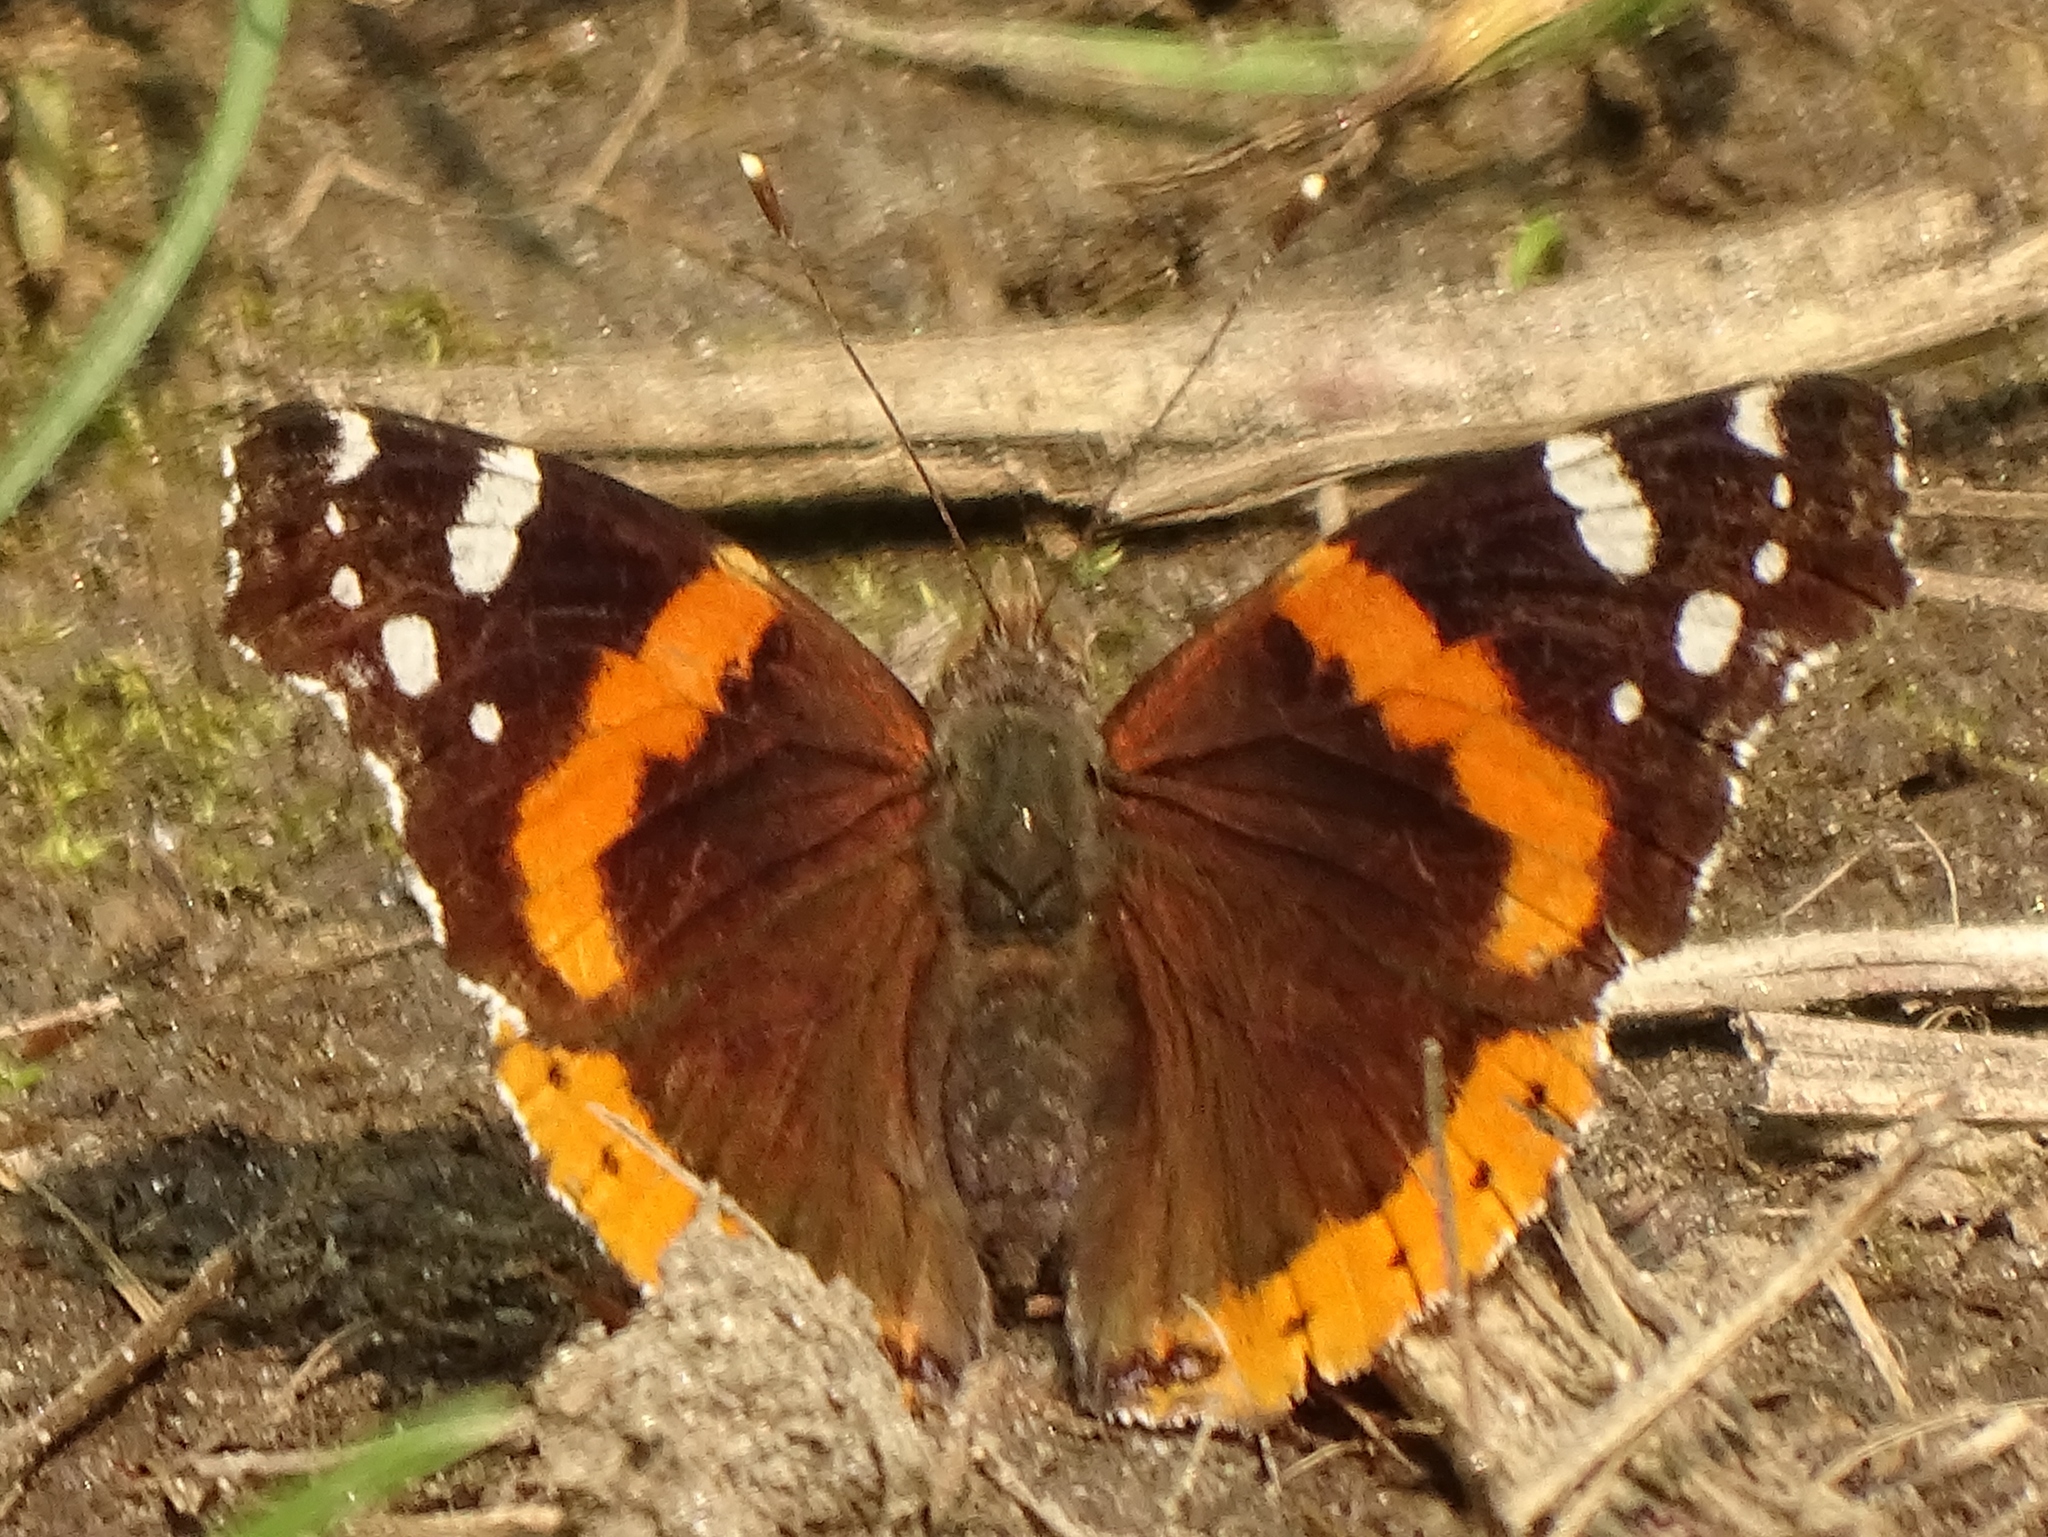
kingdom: Animalia
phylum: Arthropoda
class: Insecta
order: Lepidoptera
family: Nymphalidae
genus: Vanessa
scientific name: Vanessa atalanta
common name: Red admiral
